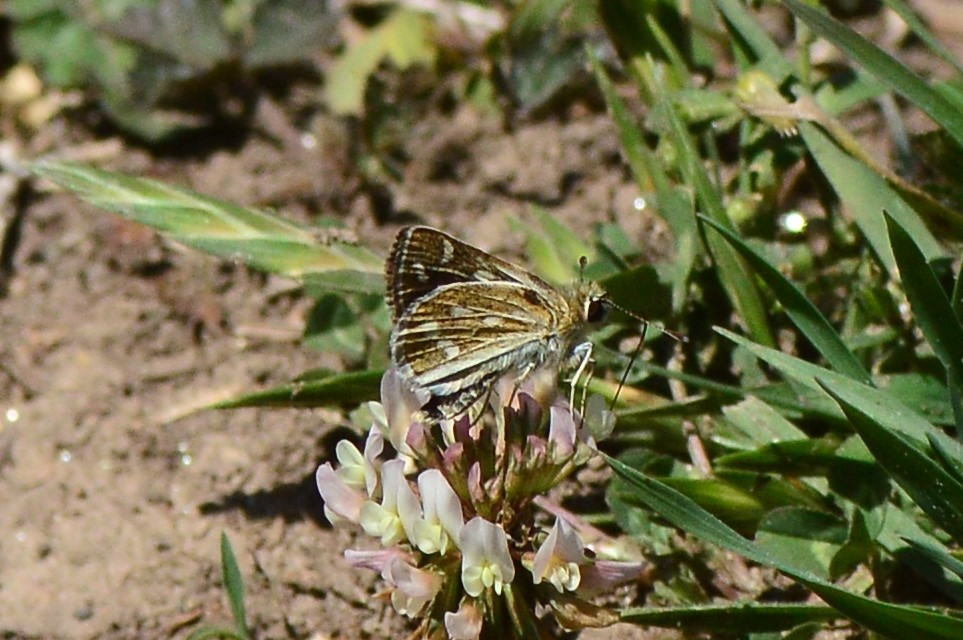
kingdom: Animalia
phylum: Arthropoda
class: Insecta
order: Lepidoptera
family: Hesperiidae
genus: Taractrocera
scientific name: Taractrocera danna
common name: Himalayan grass dart
